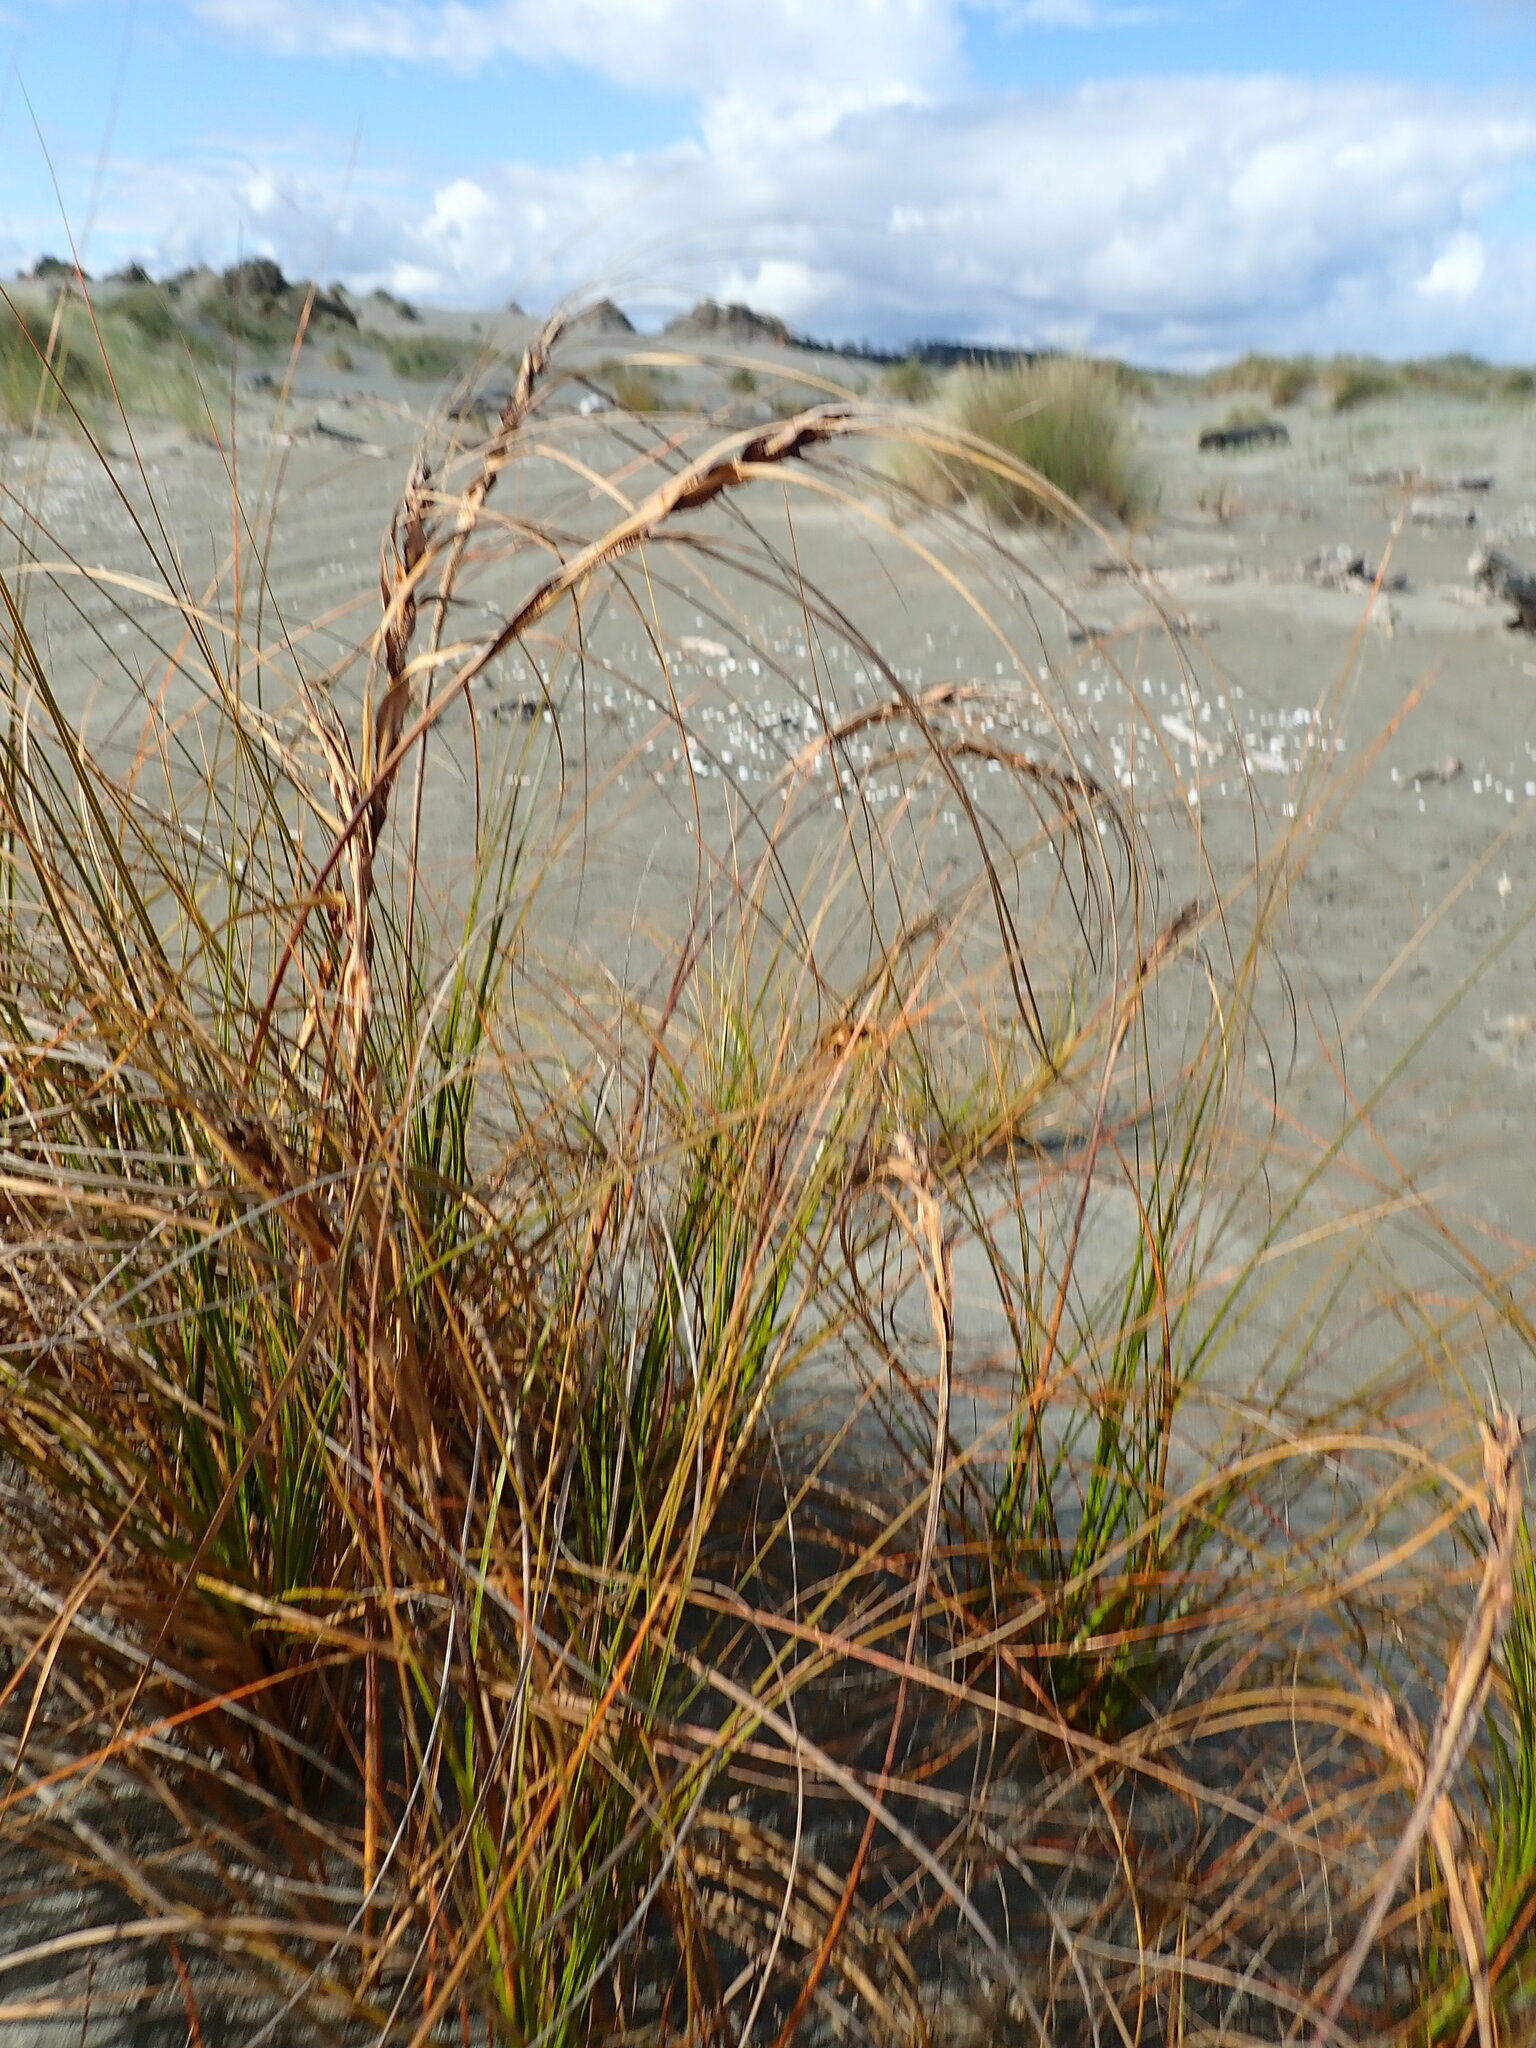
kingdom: Plantae
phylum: Tracheophyta
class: Liliopsida
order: Poales
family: Cyperaceae
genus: Ficinia
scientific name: Ficinia spiralis
